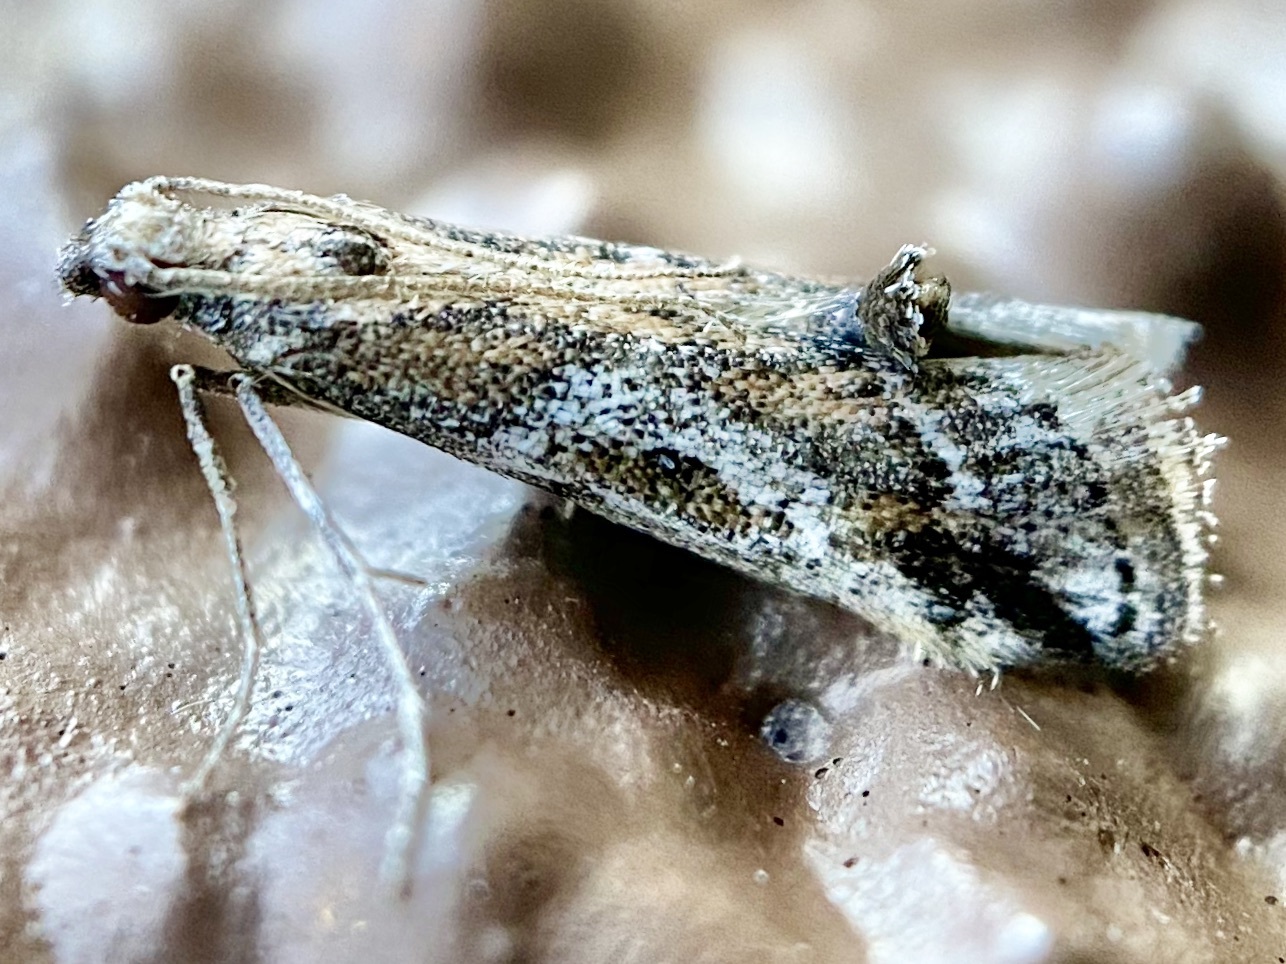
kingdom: Animalia
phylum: Arthropoda
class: Insecta
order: Lepidoptera
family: Pyralidae
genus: Alpheias
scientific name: Alpheias Decaturia pectinalis
